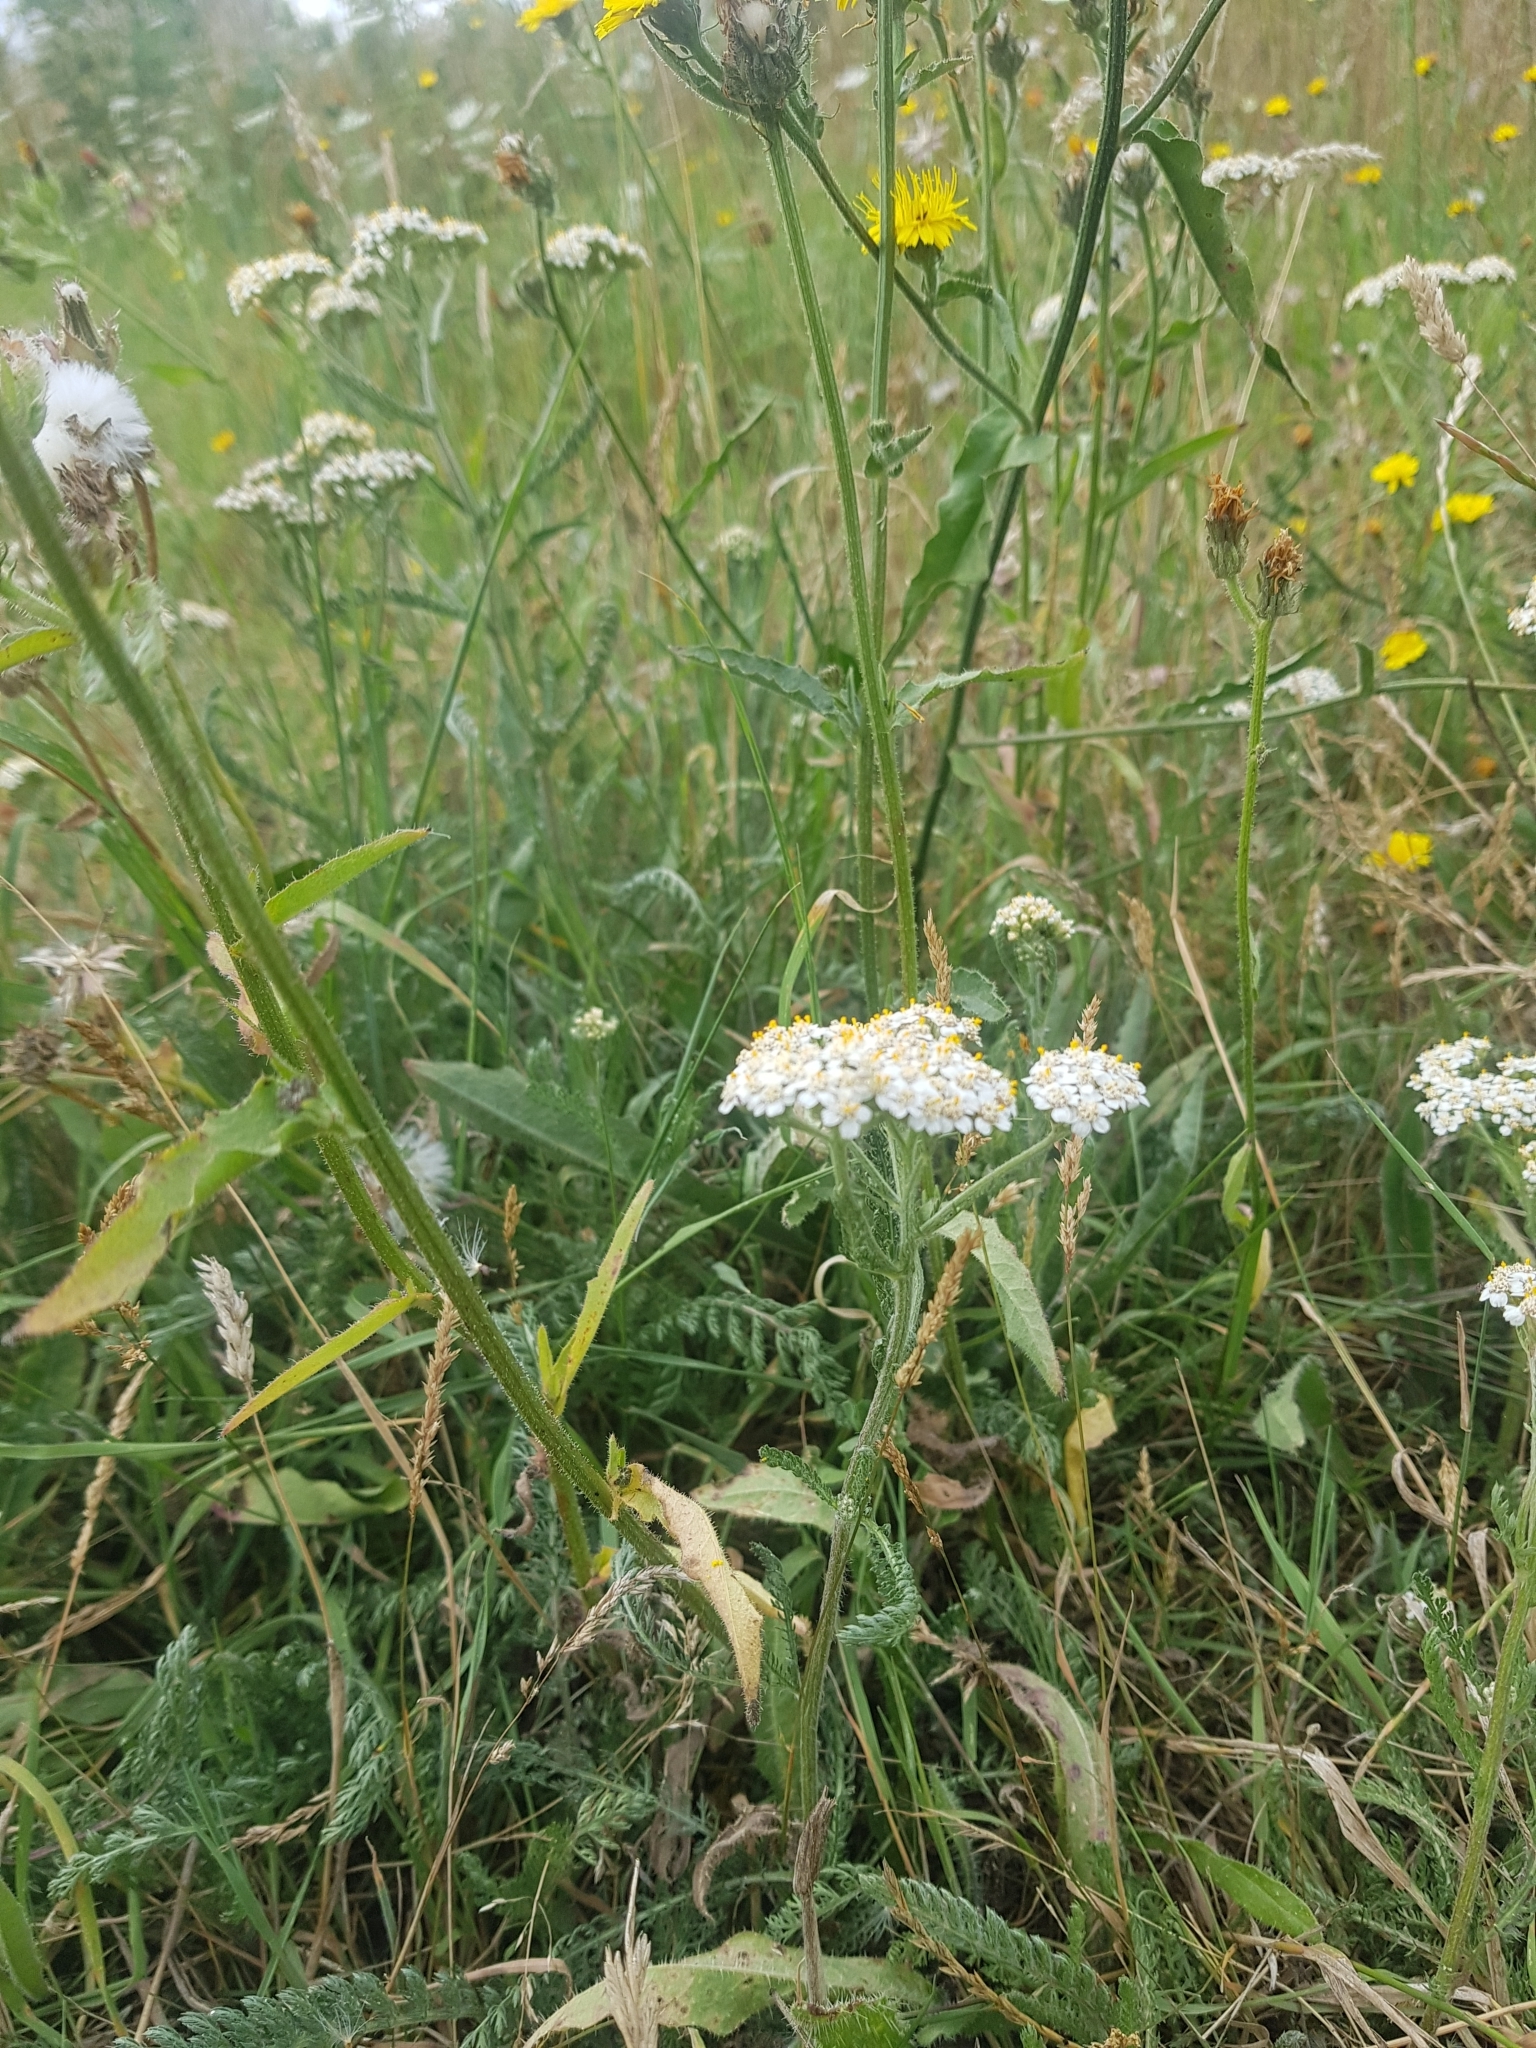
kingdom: Plantae
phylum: Tracheophyta
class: Magnoliopsida
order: Asterales
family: Asteraceae
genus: Achillea
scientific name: Achillea millefolium
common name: Yarrow
